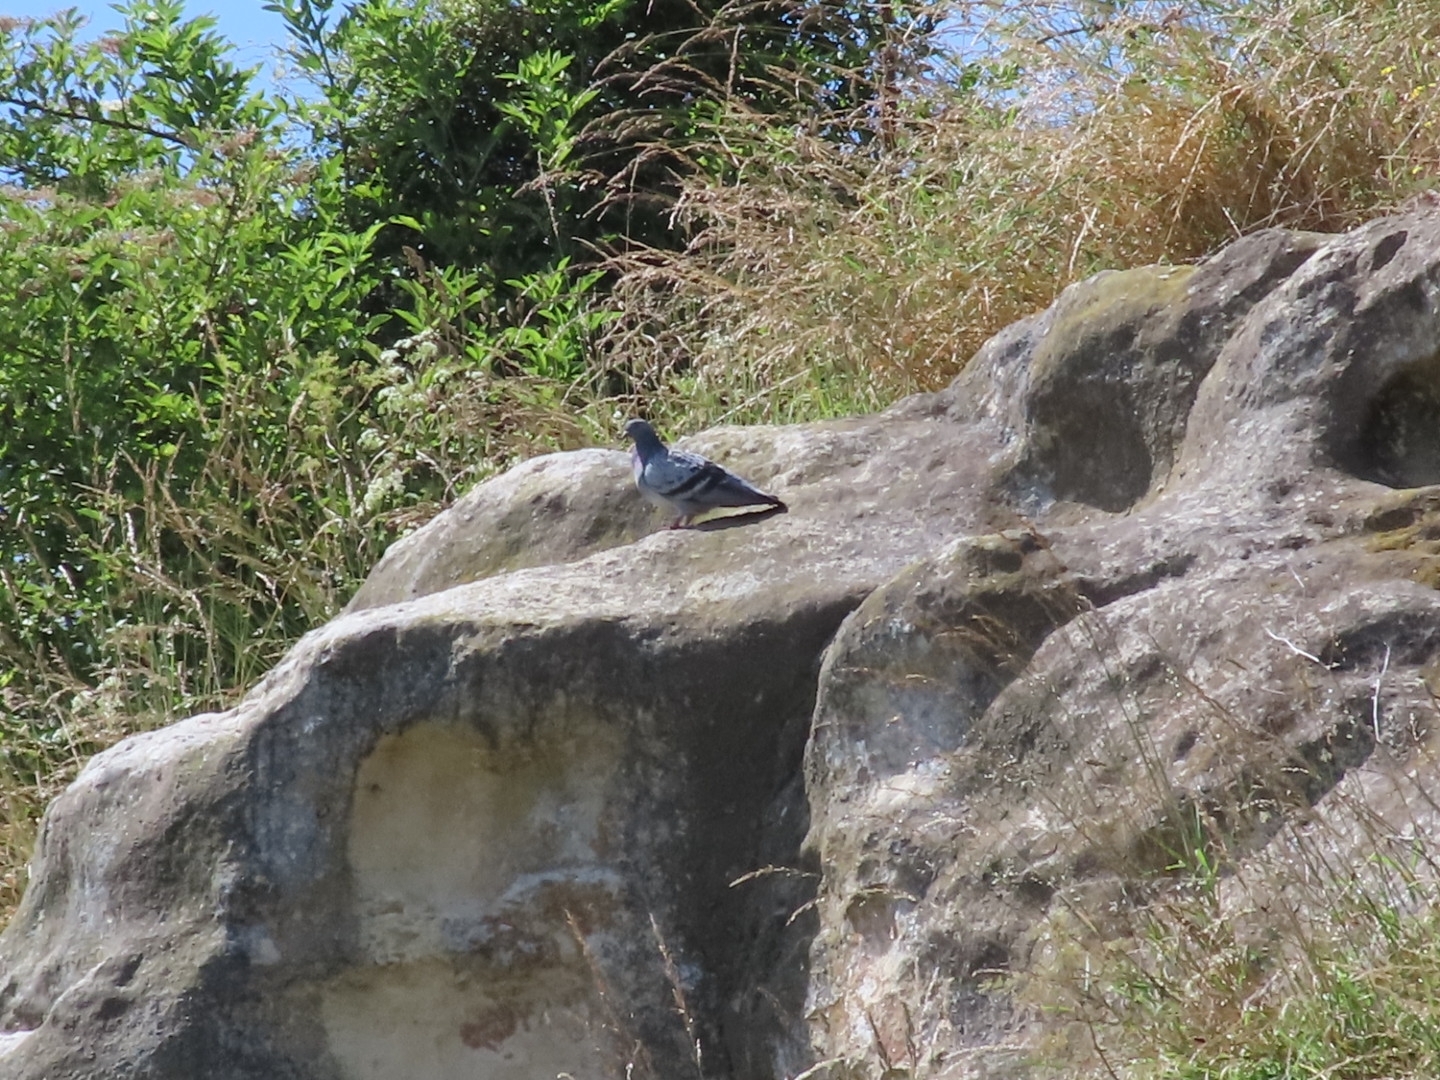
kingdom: Animalia
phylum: Chordata
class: Aves
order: Columbiformes
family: Columbidae
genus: Columba
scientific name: Columba livia
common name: Rock pigeon
